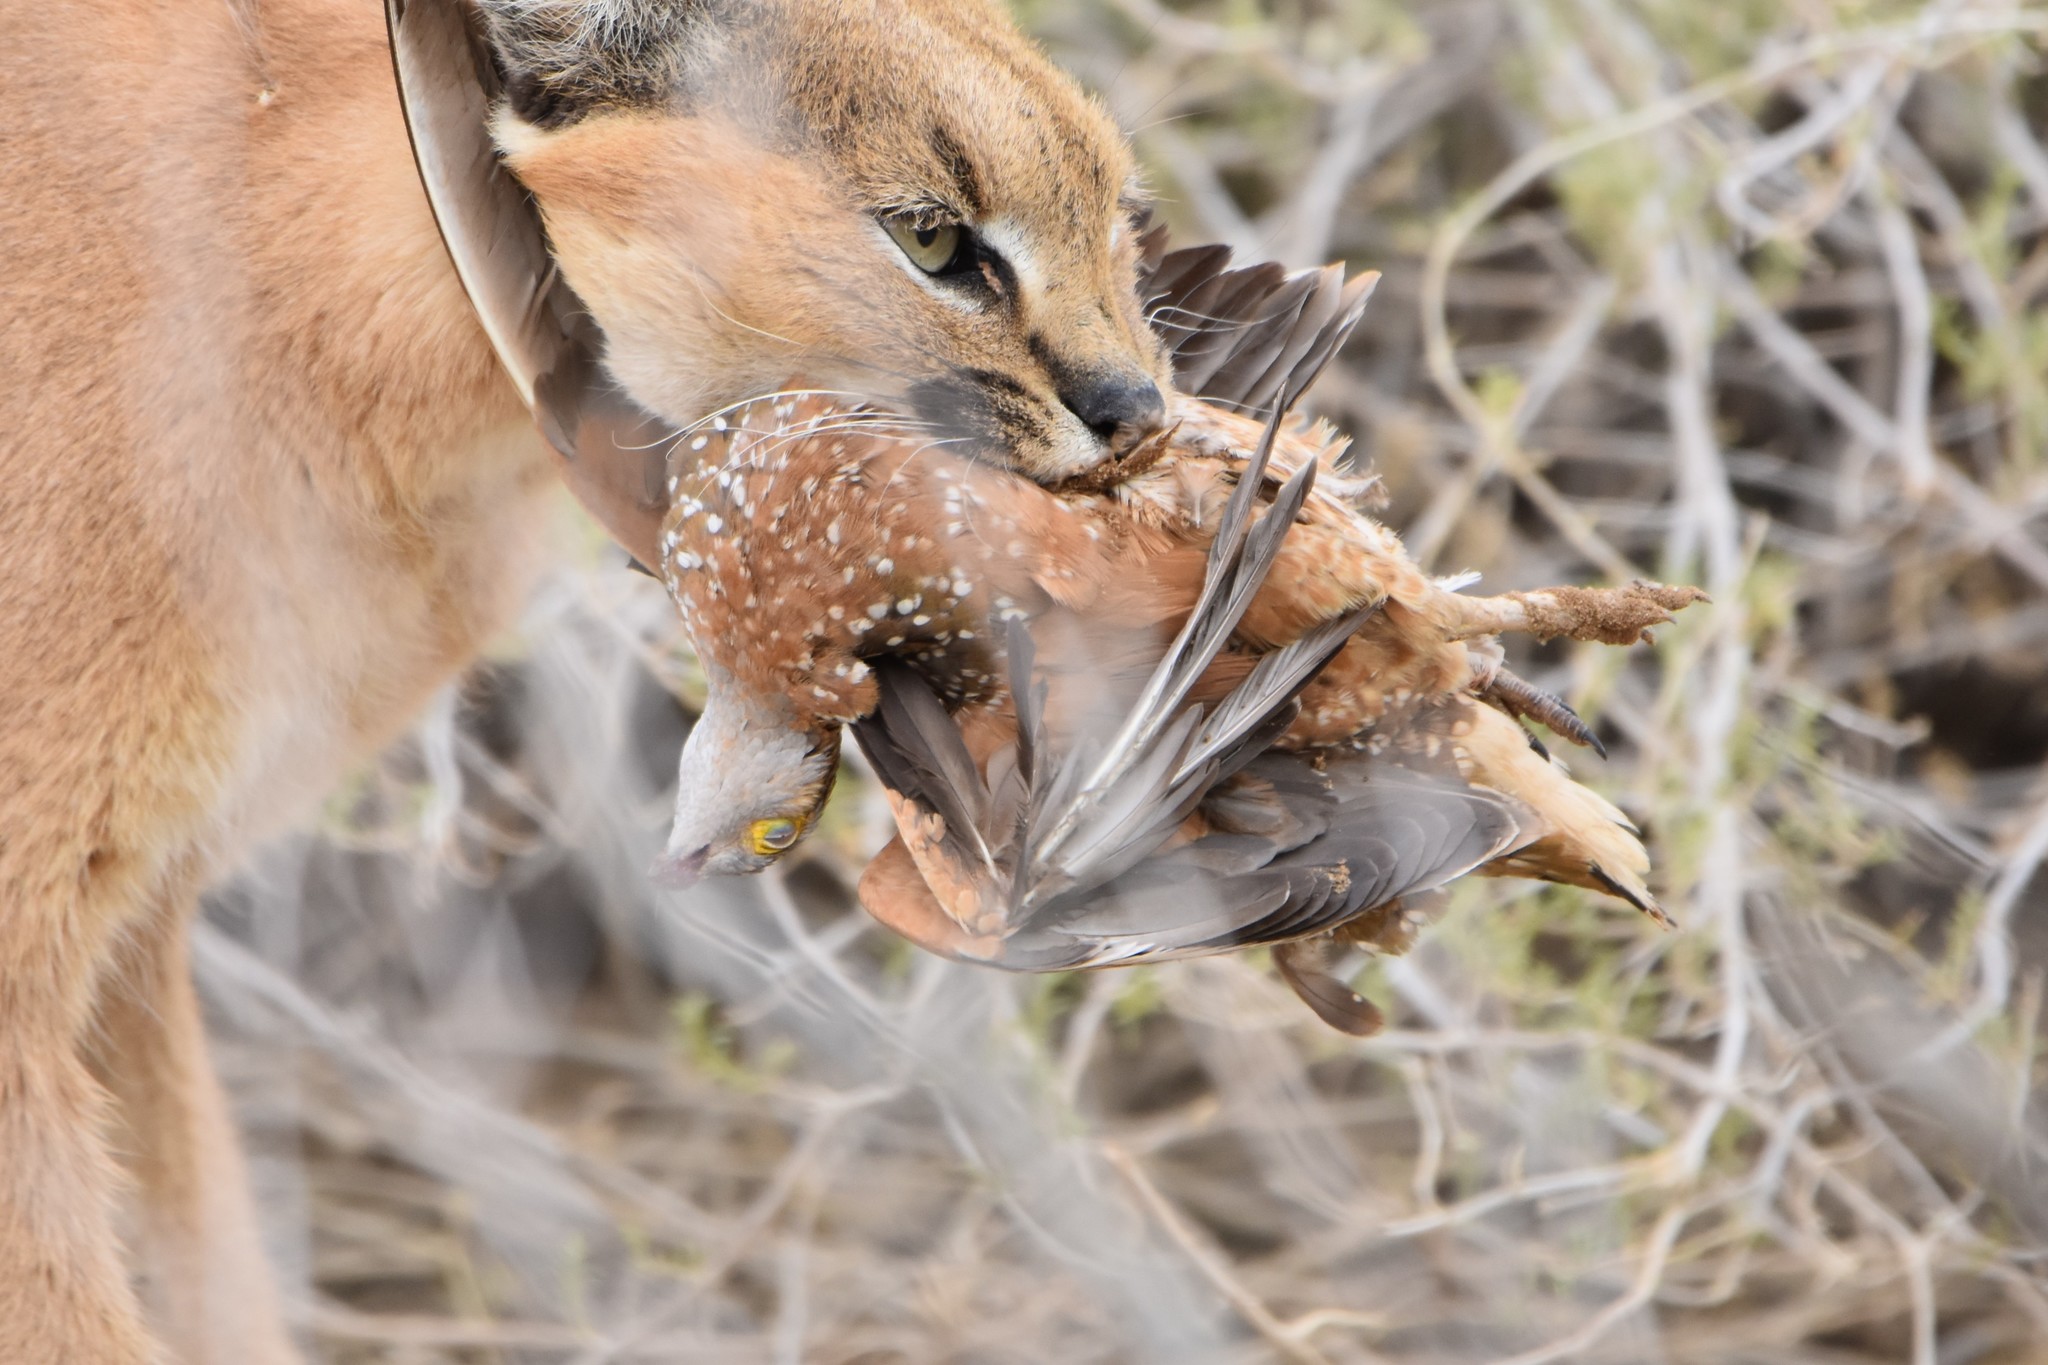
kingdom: Animalia
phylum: Chordata
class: Aves
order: Pteroclidiformes
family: Pteroclididae
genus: Pterocles
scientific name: Pterocles burchelli
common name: Burchell's sandgrouse
